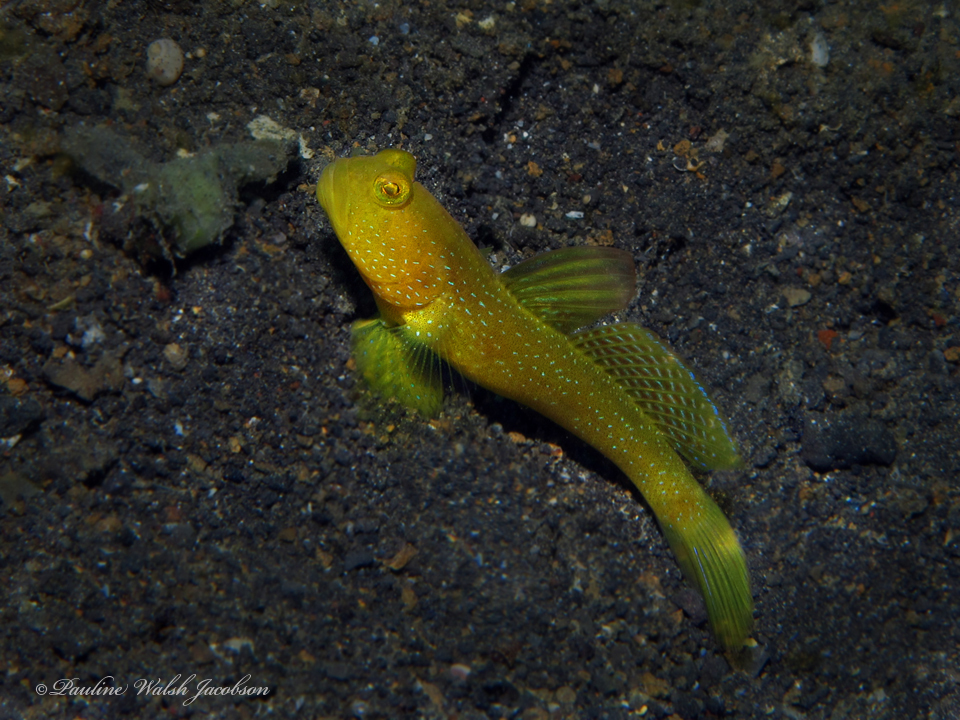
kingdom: Animalia
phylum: Chordata
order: Perciformes
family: Gobiidae
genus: Cryptocentrus
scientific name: Cryptocentrus fasciatus
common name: Barred prawn-goby
